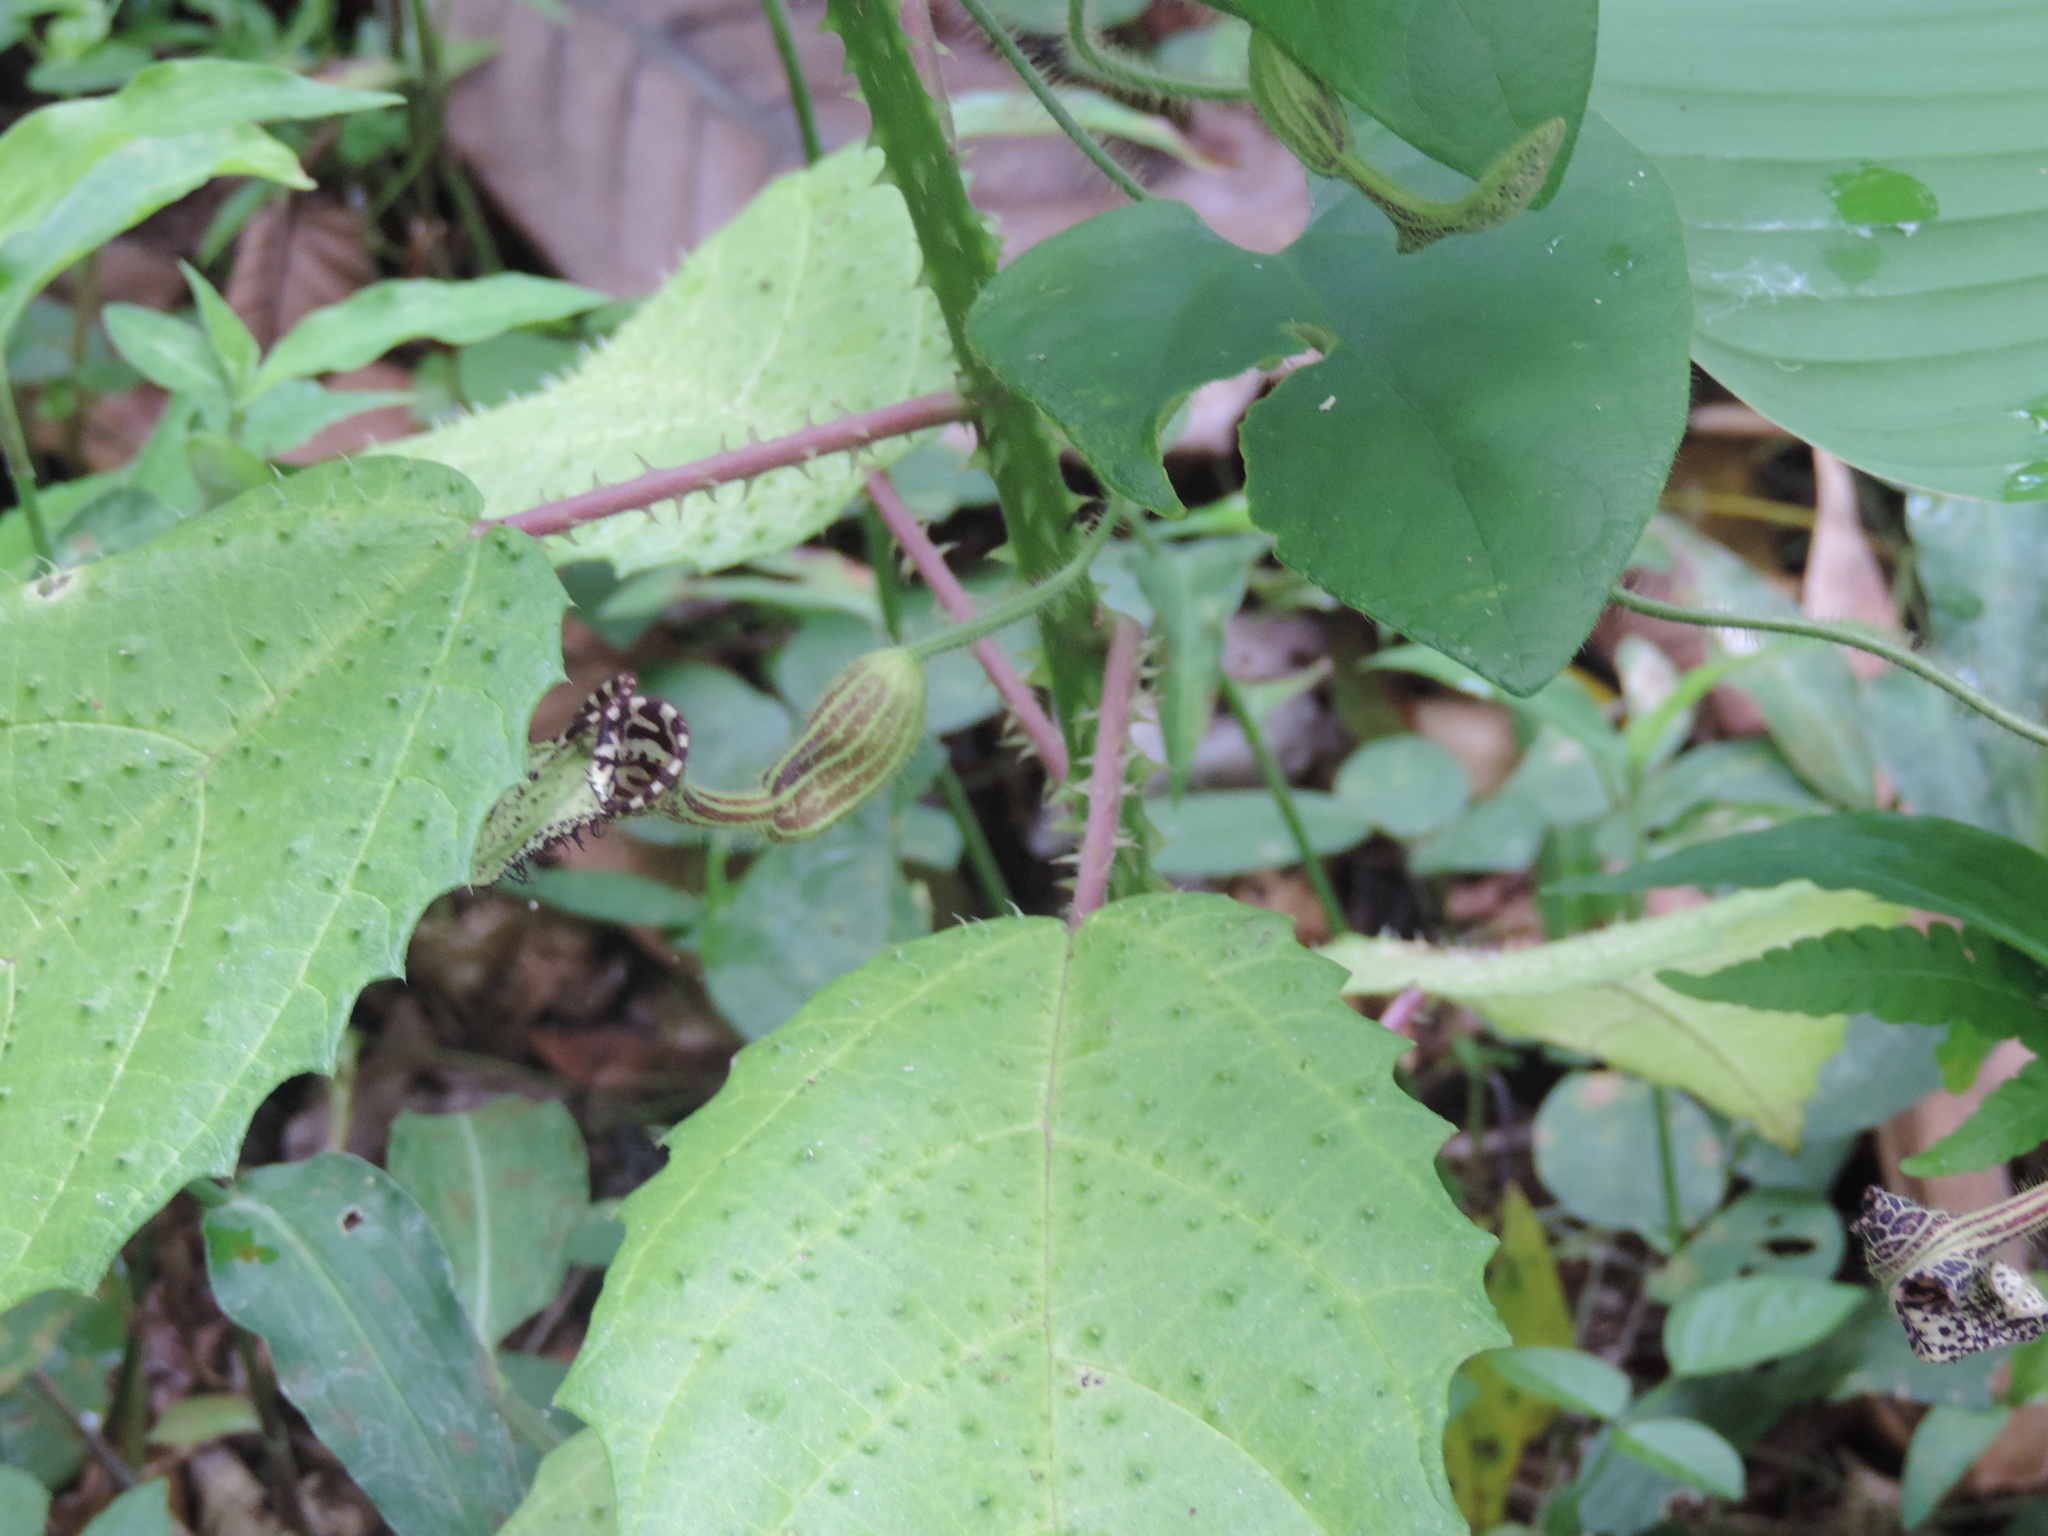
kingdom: Plantae
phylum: Tracheophyta
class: Magnoliopsida
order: Piperales
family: Aristolochiaceae
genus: Aristolochia
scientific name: Aristolochia pilosa
